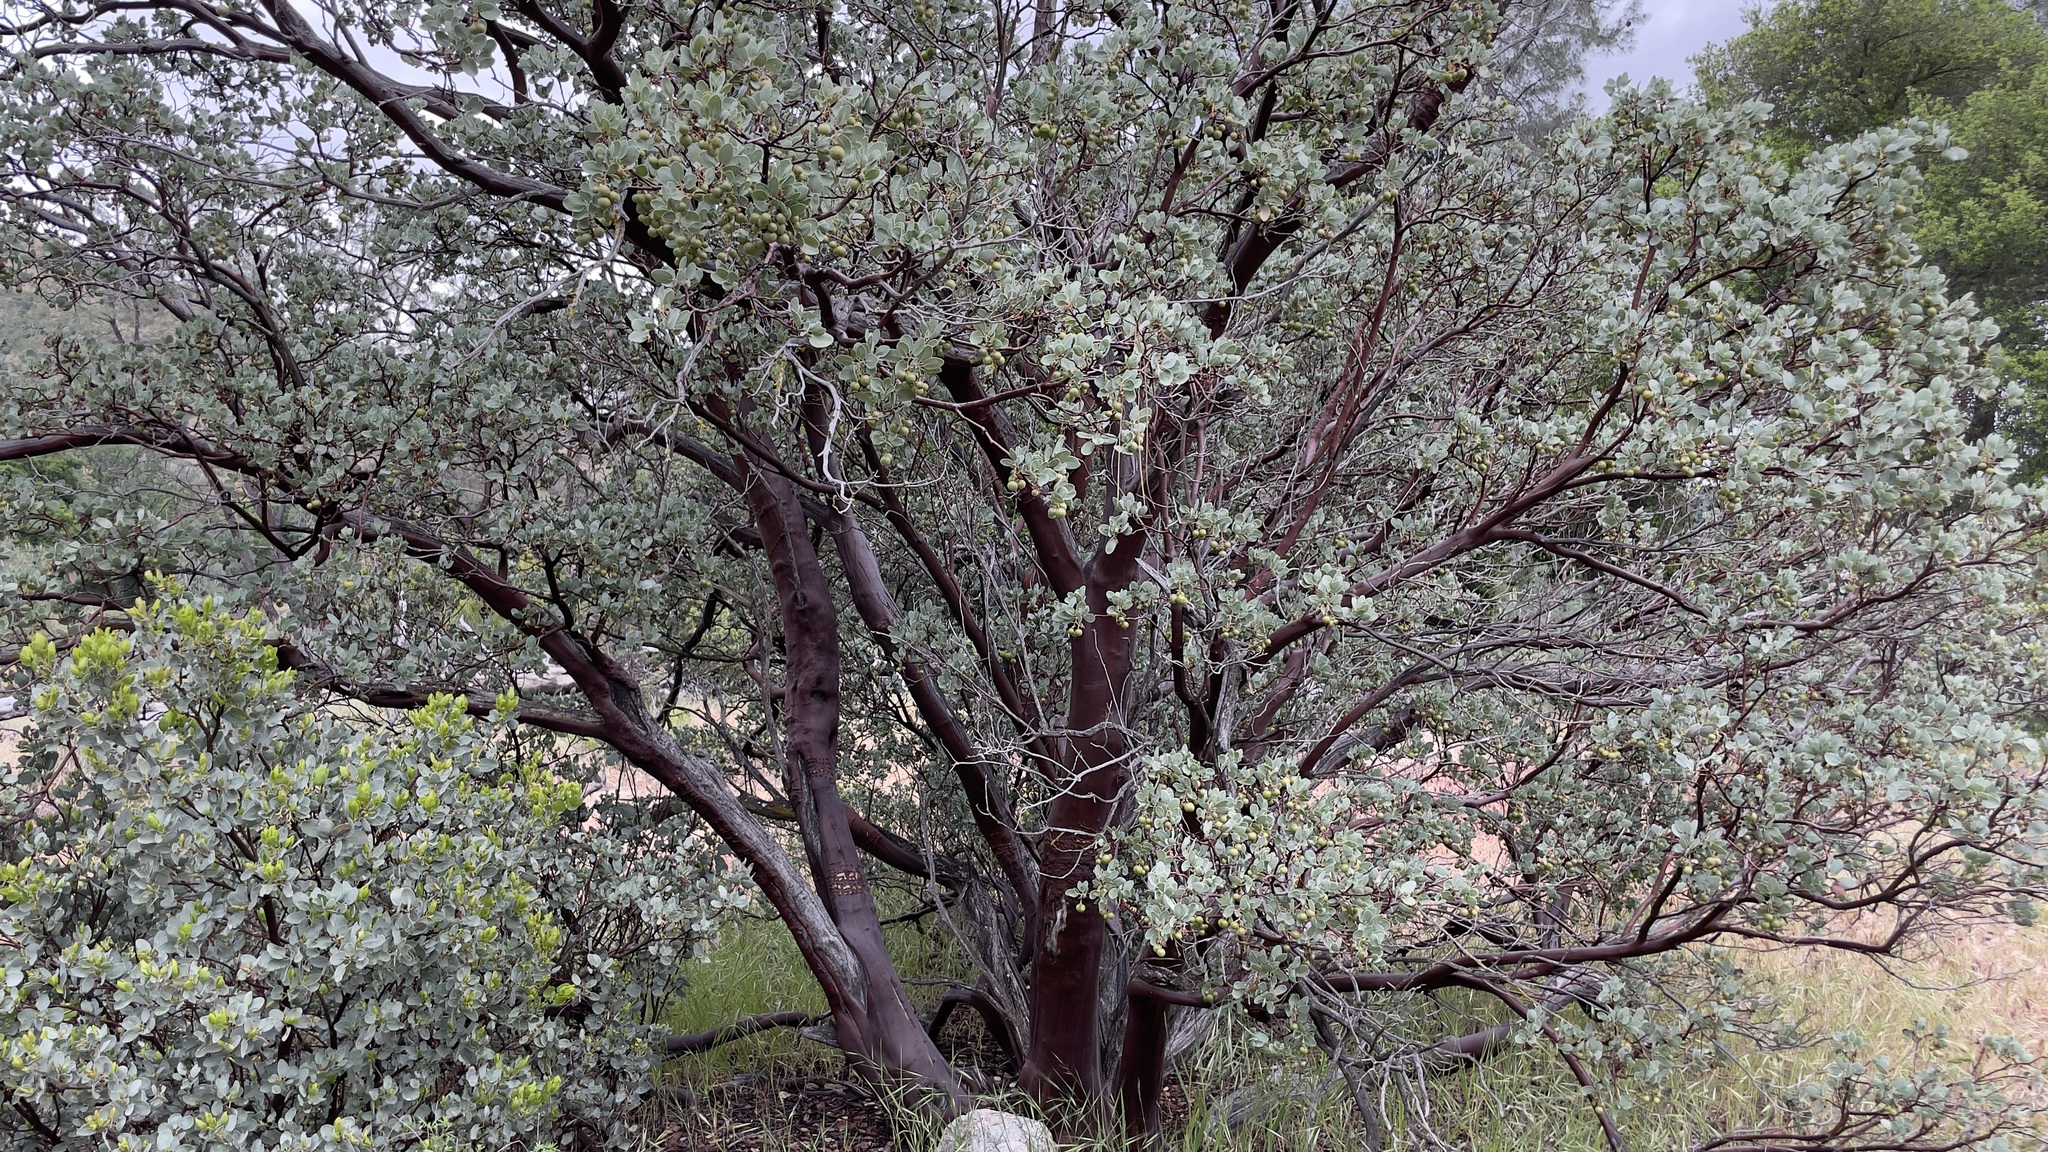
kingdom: Plantae
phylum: Tracheophyta
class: Magnoliopsida
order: Ericales
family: Ericaceae
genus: Arctostaphylos
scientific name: Arctostaphylos glauca
